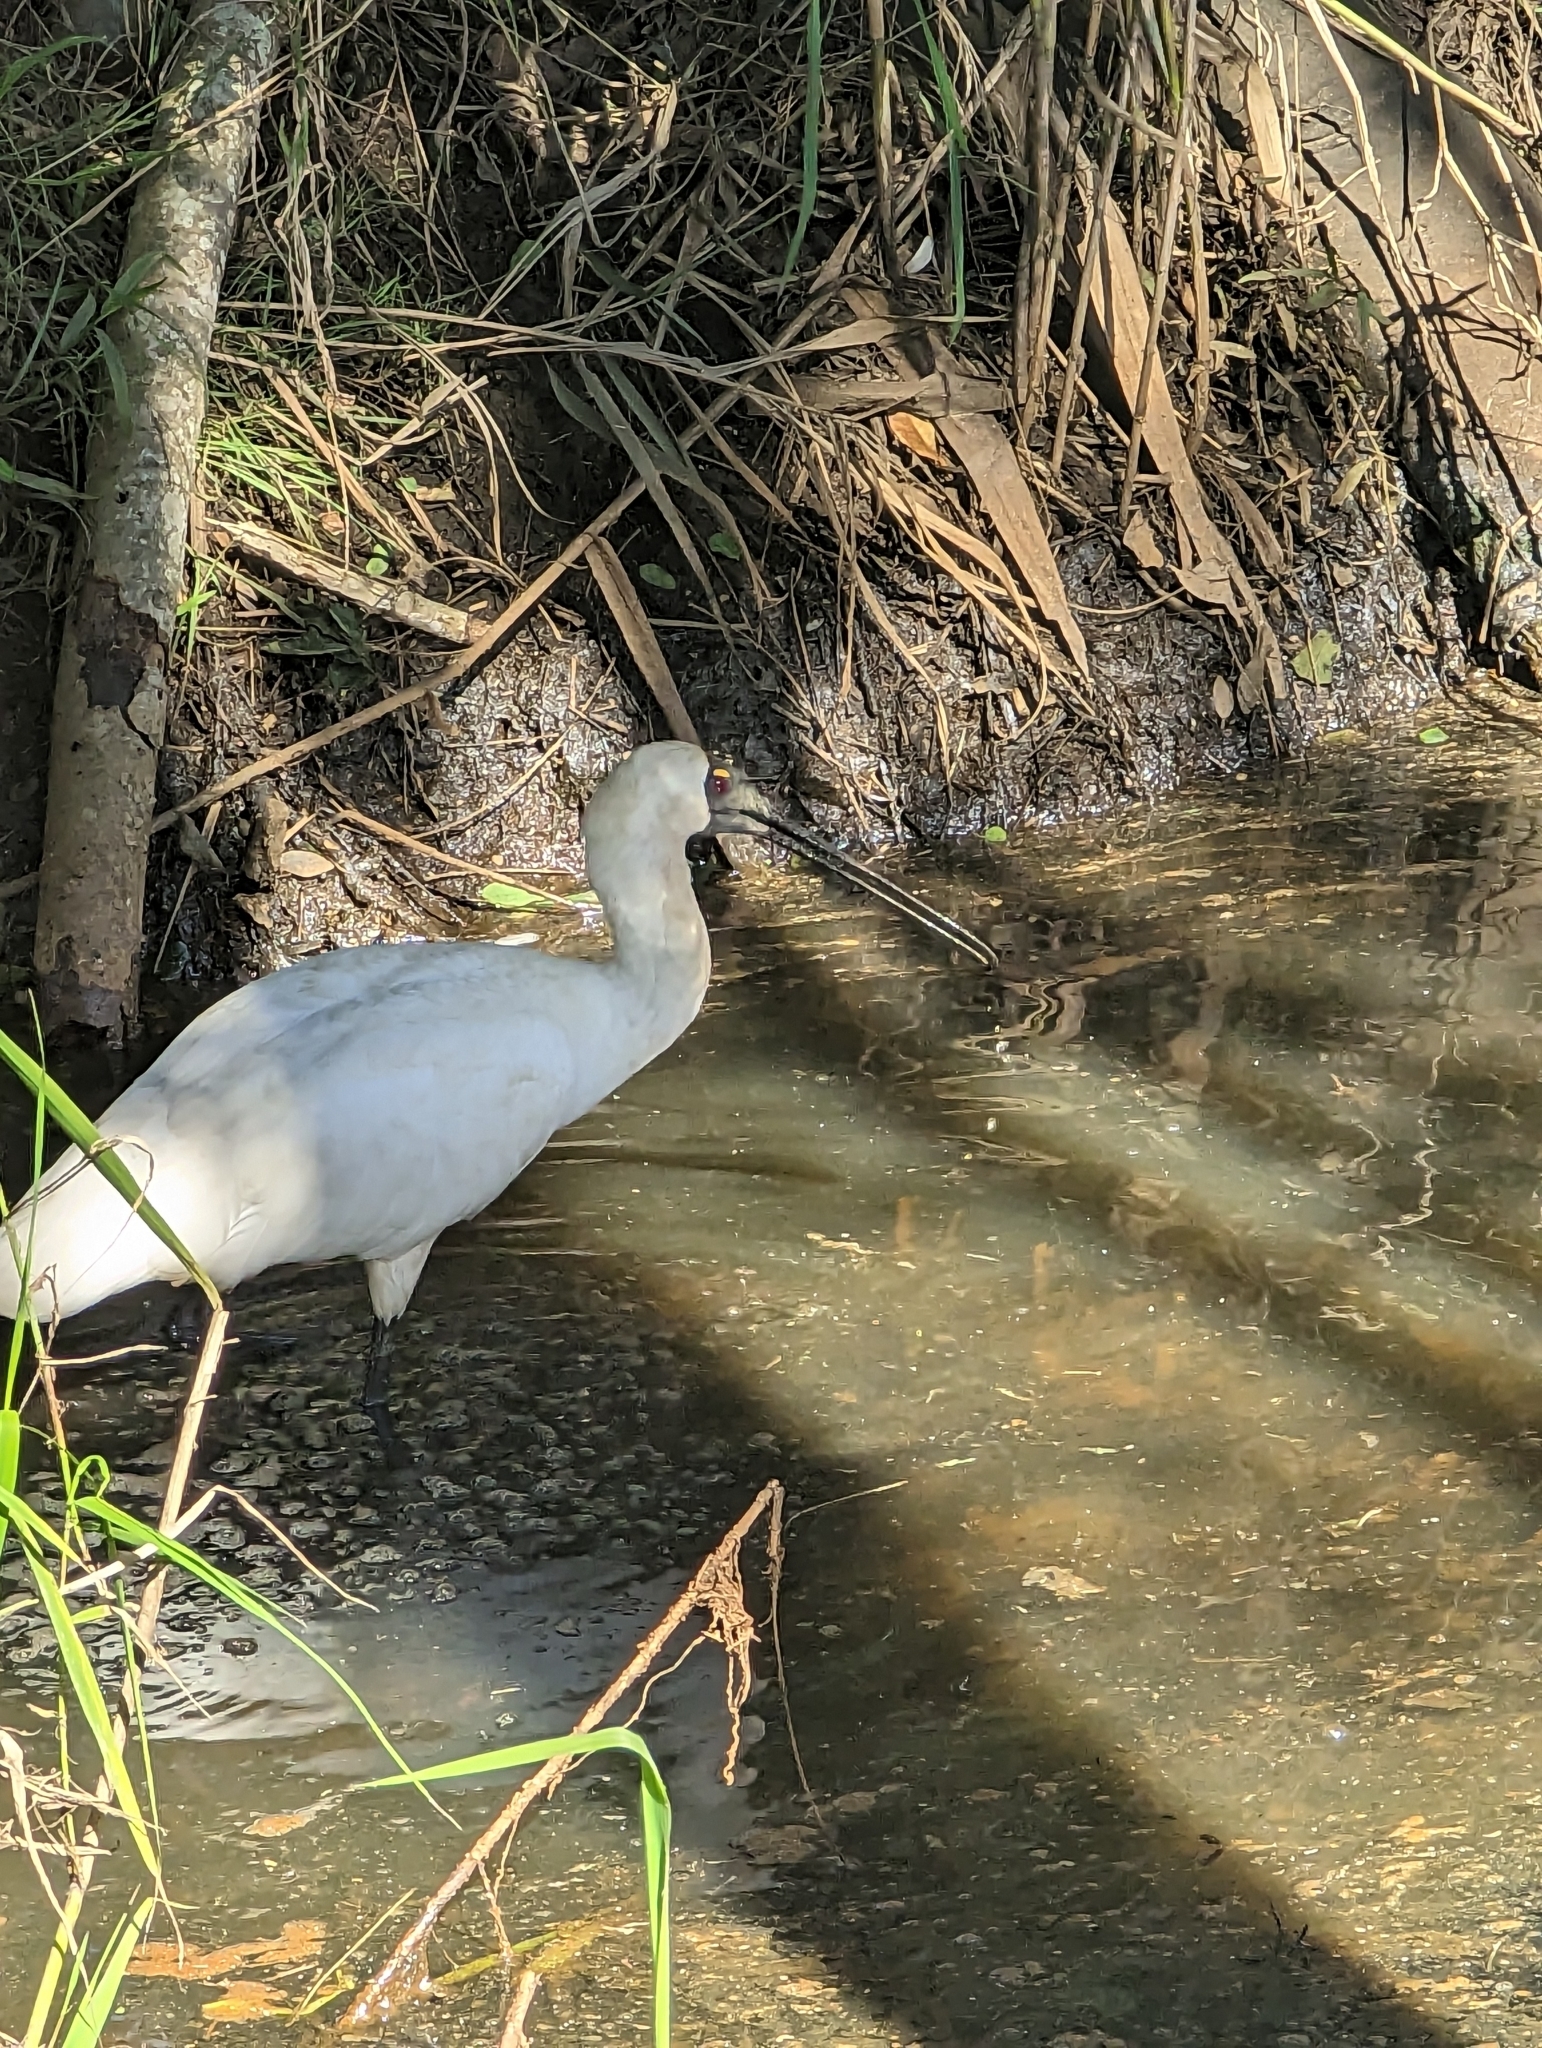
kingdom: Animalia
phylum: Chordata
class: Aves
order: Pelecaniformes
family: Threskiornithidae
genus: Platalea
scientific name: Platalea regia
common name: Royal spoonbill
